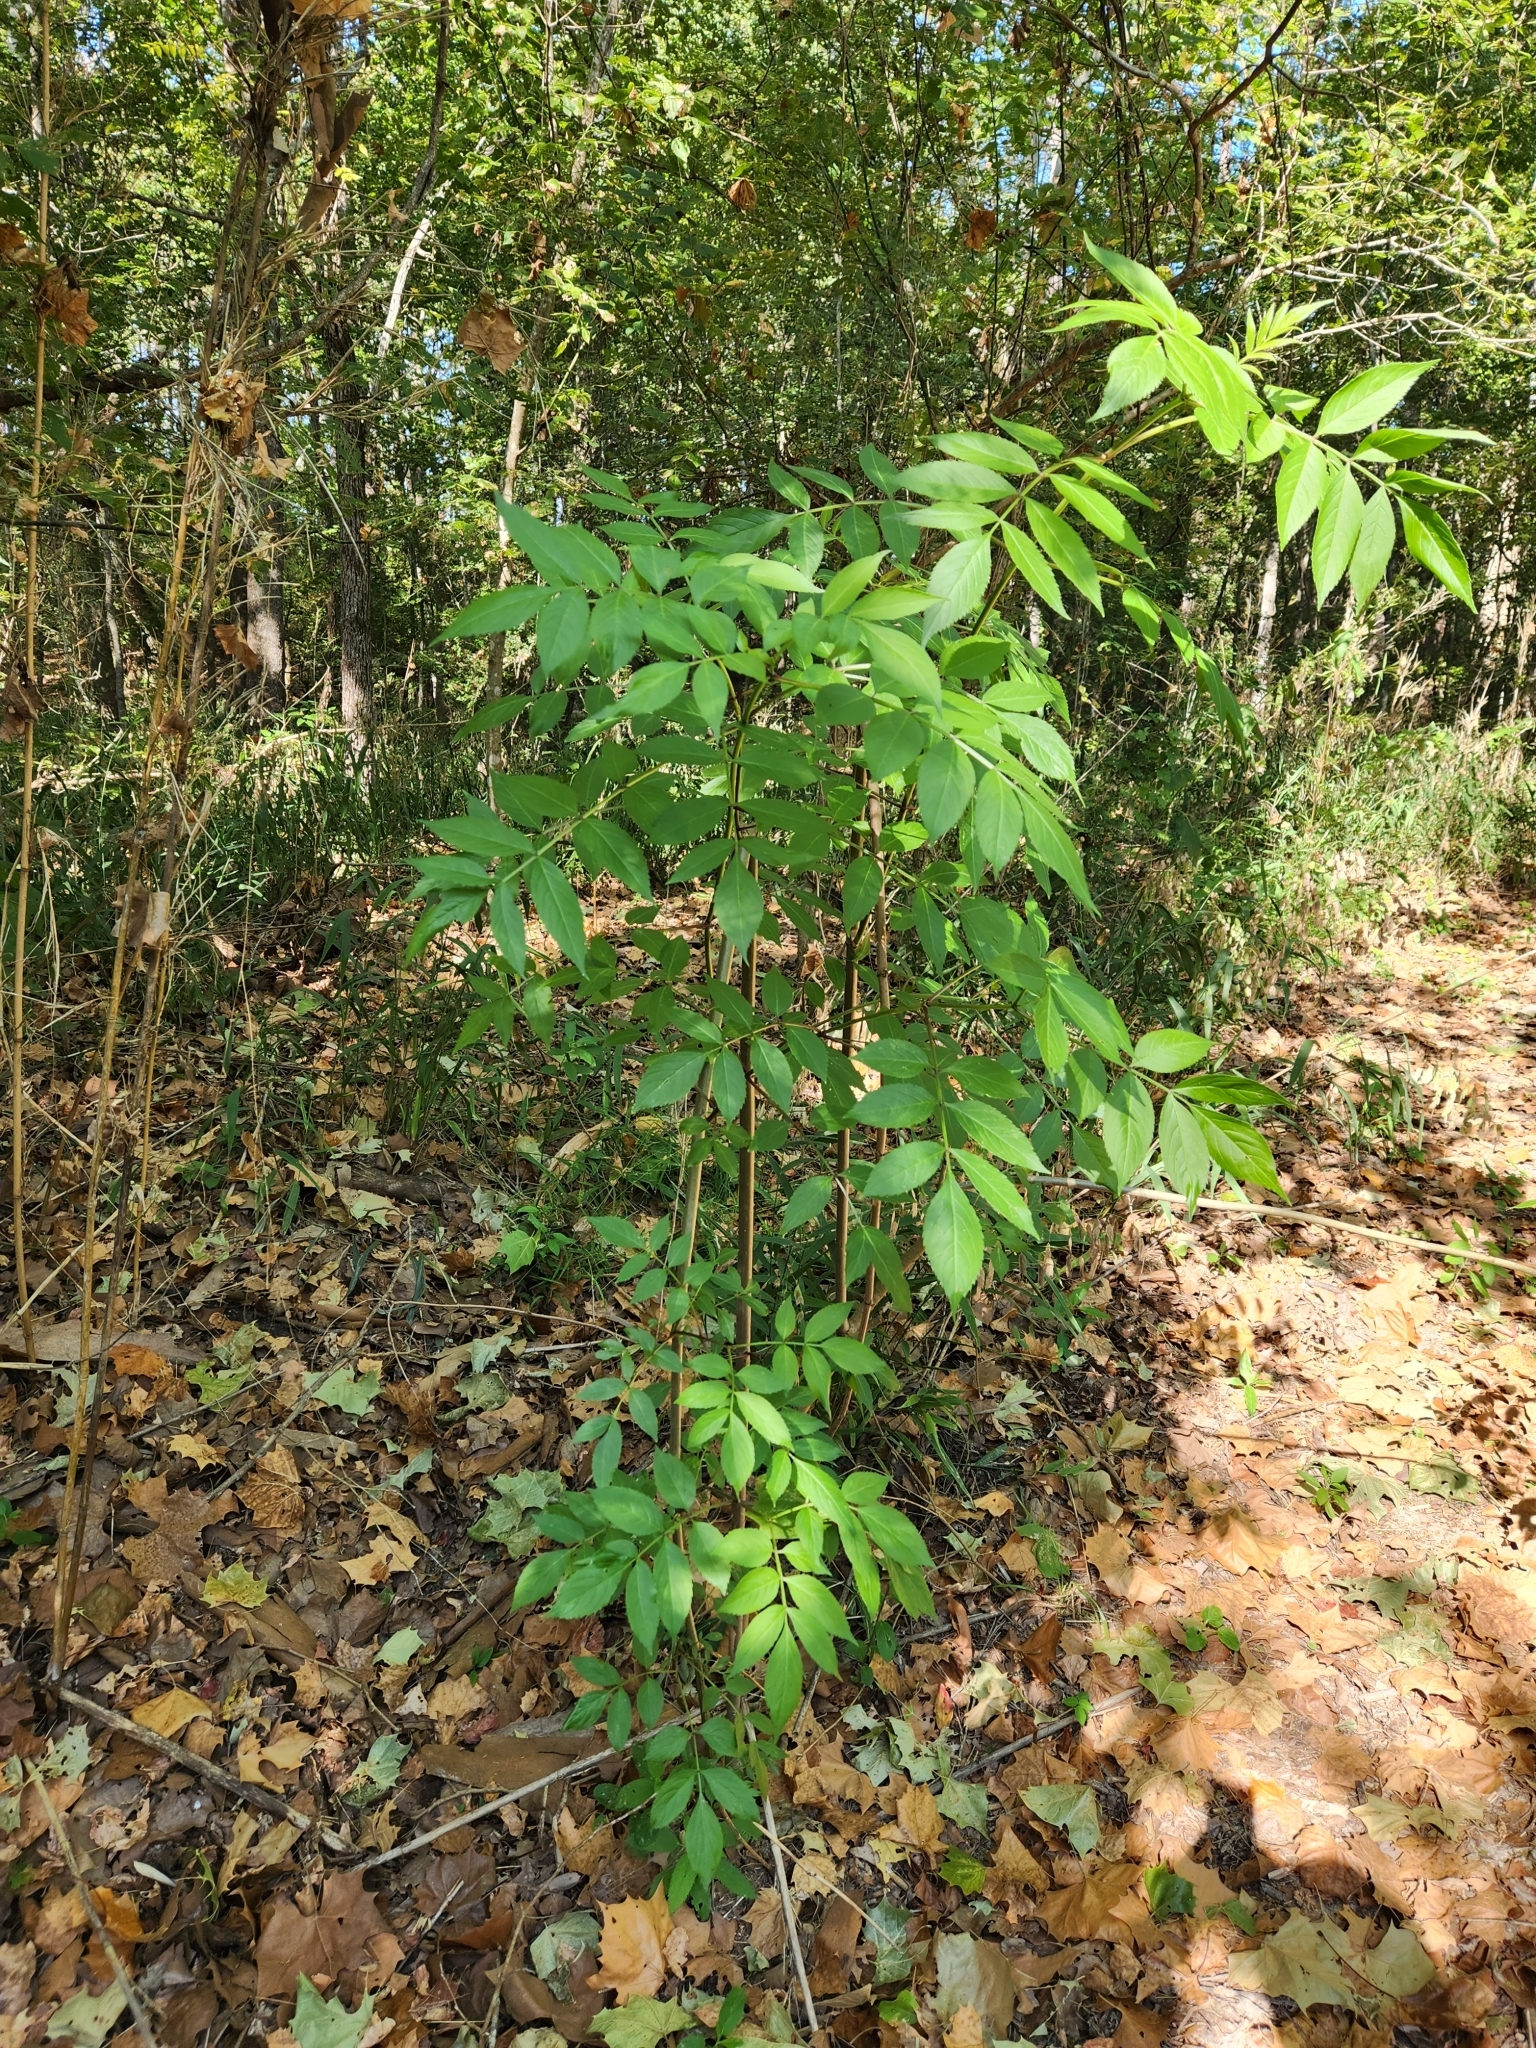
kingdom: Plantae
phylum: Tracheophyta
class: Magnoliopsida
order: Dipsacales
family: Viburnaceae
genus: Sambucus
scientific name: Sambucus canadensis
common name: American elder
